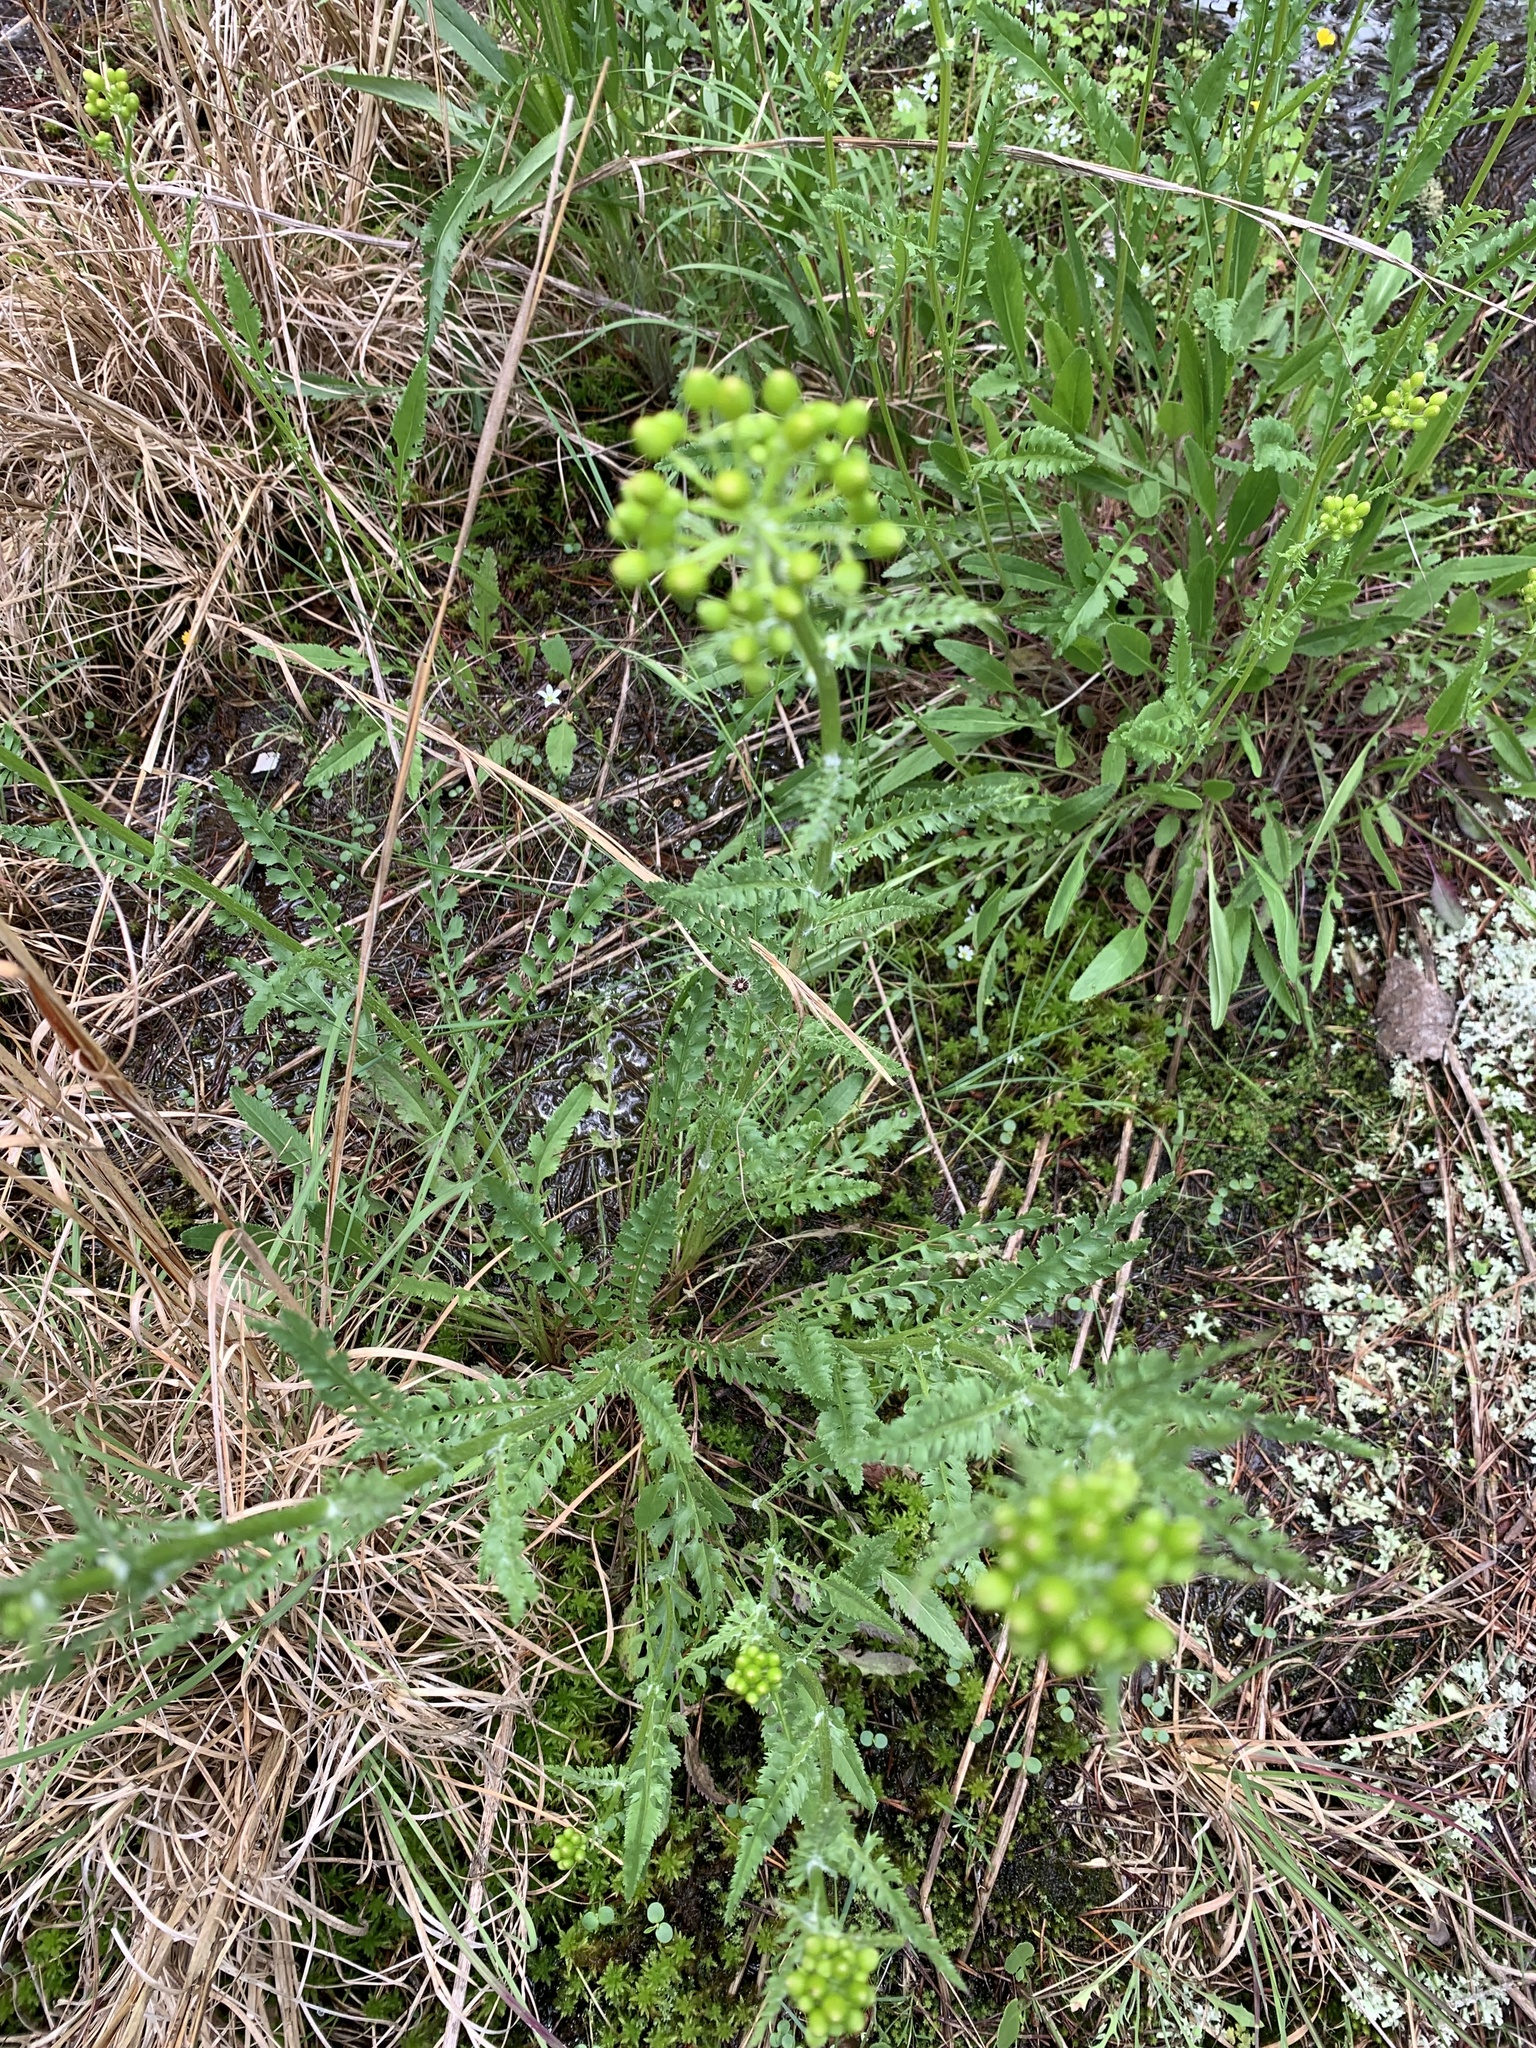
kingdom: Plantae
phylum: Tracheophyta
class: Magnoliopsida
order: Asterales
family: Asteraceae
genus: Packera
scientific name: Packera anonyma
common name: Small ragwort
